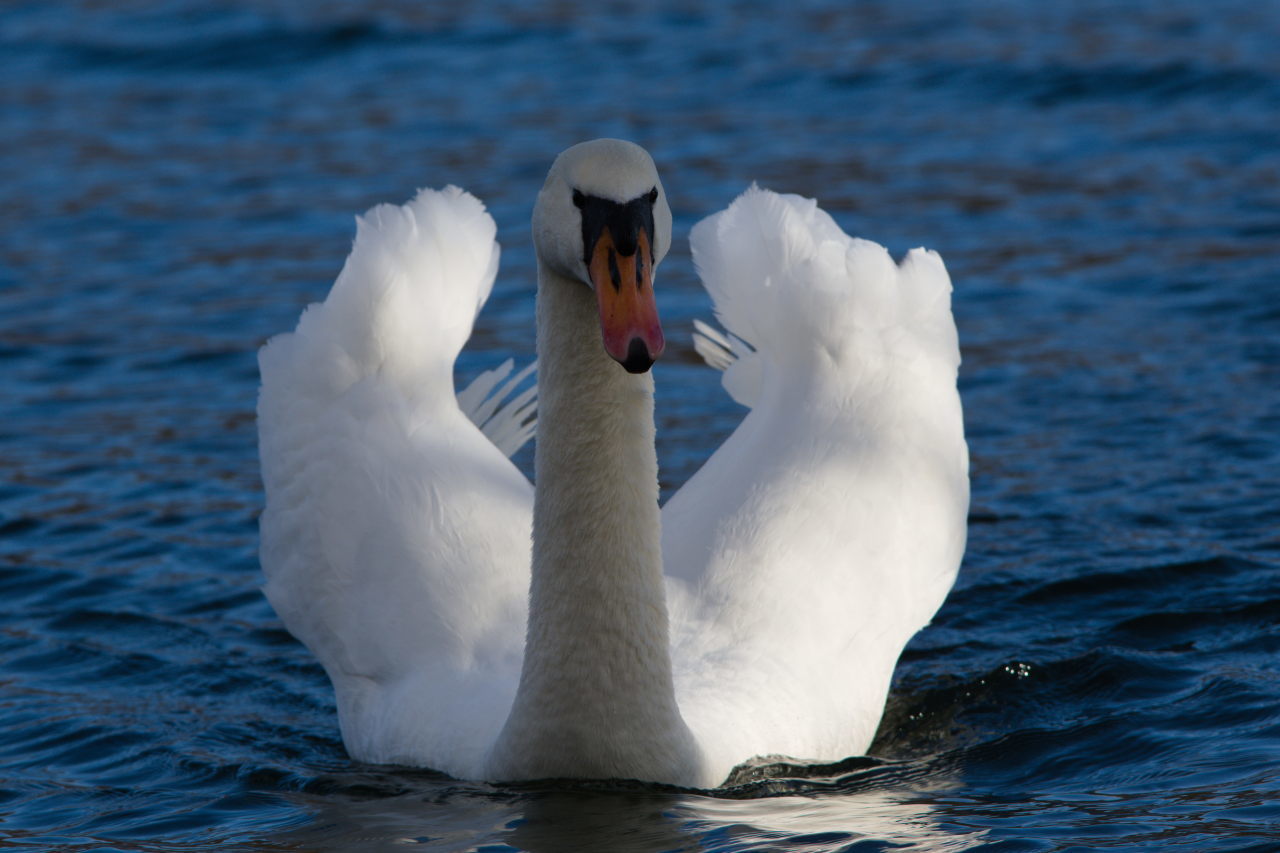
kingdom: Animalia
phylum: Chordata
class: Aves
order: Anseriformes
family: Anatidae
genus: Cygnus
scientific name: Cygnus olor
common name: Mute swan
